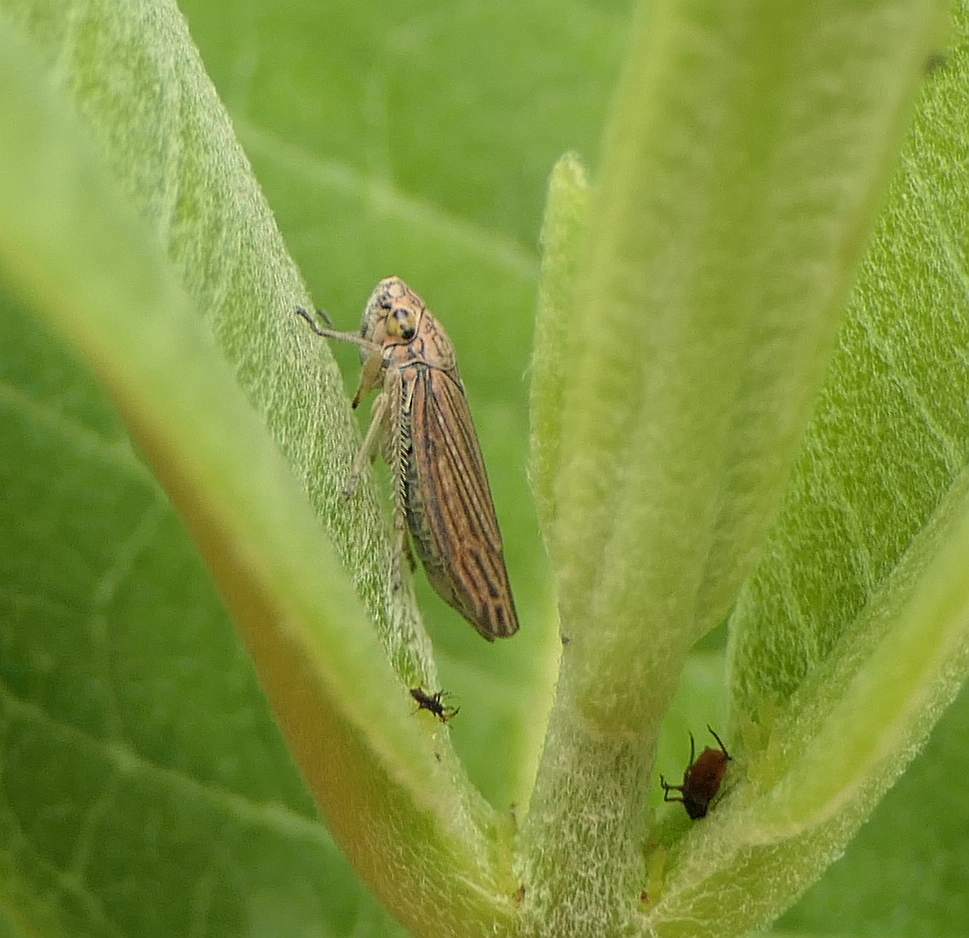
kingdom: Animalia
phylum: Arthropoda
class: Insecta
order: Hemiptera
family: Cicadellidae
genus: Neokolla
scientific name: Neokolla hieroglyphica
